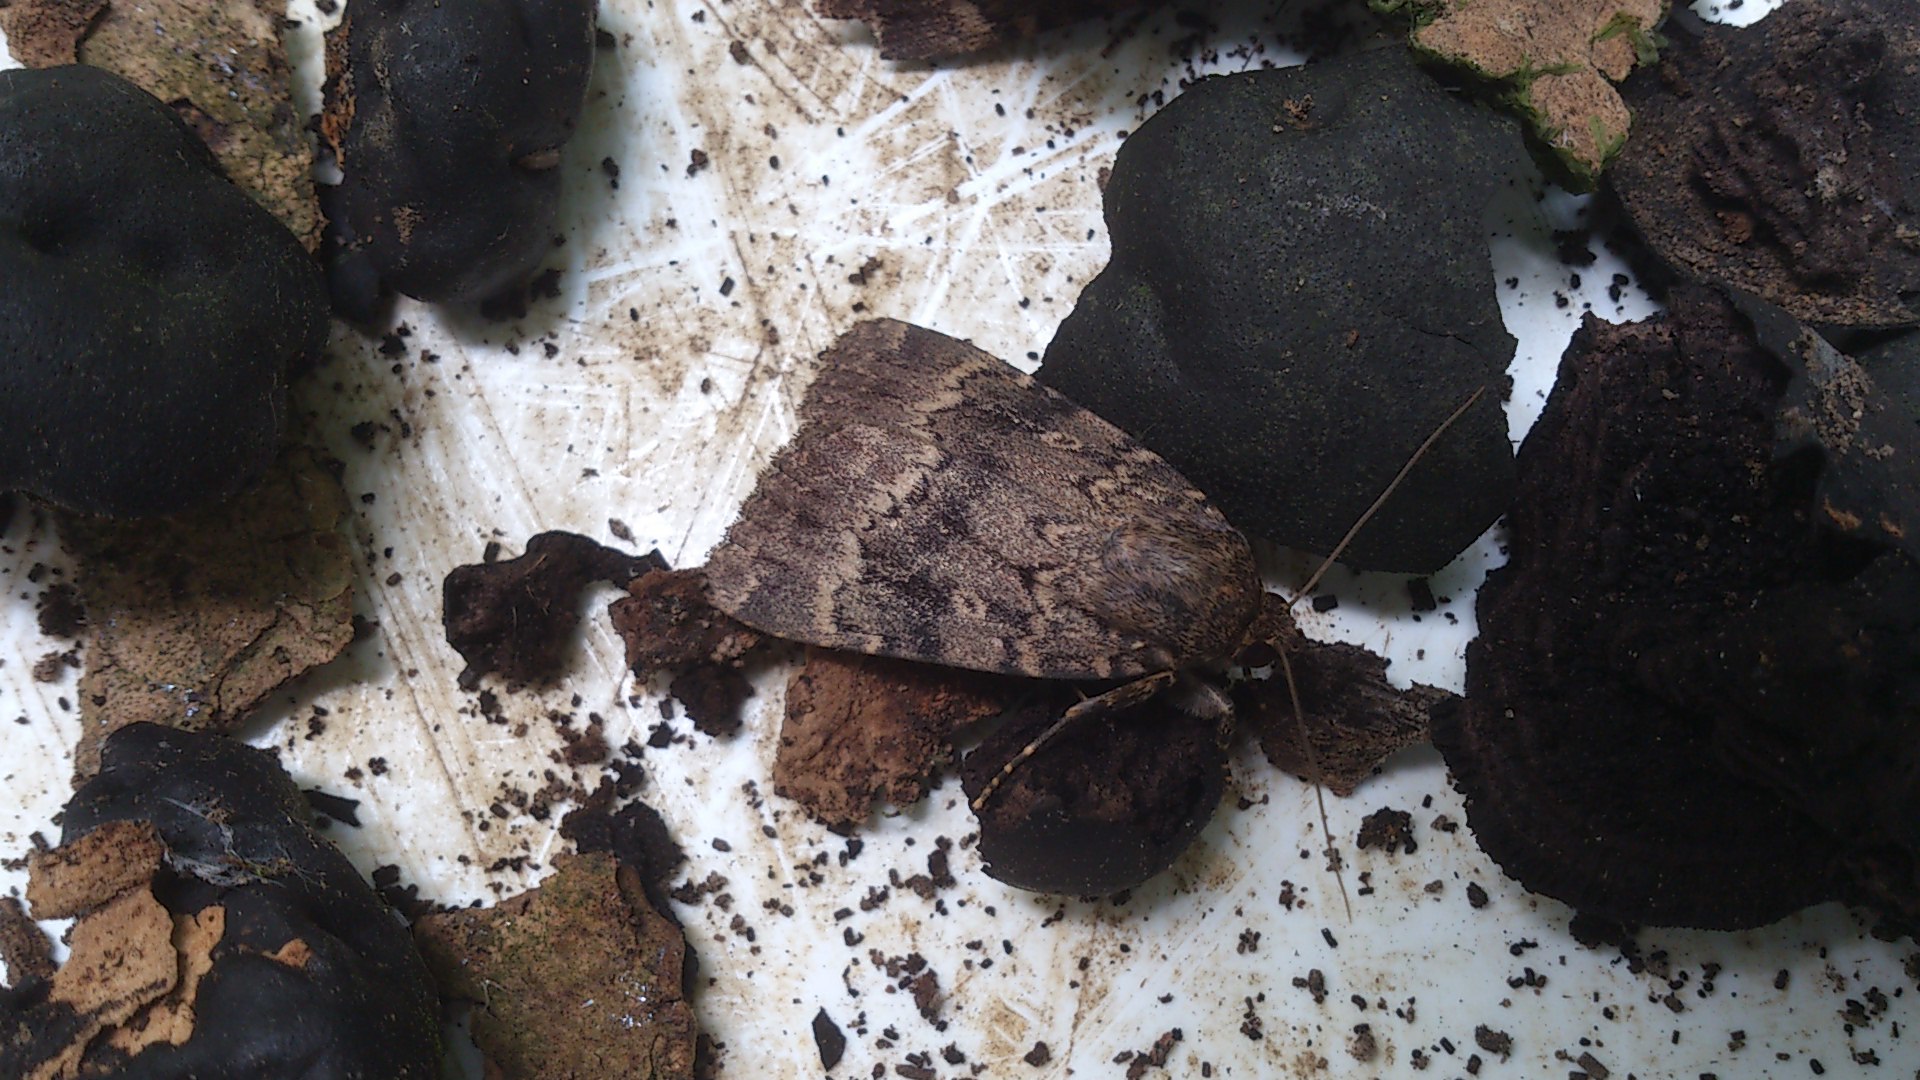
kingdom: Animalia
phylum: Arthropoda
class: Insecta
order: Lepidoptera
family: Noctuidae
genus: Amphipyra
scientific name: Amphipyra
